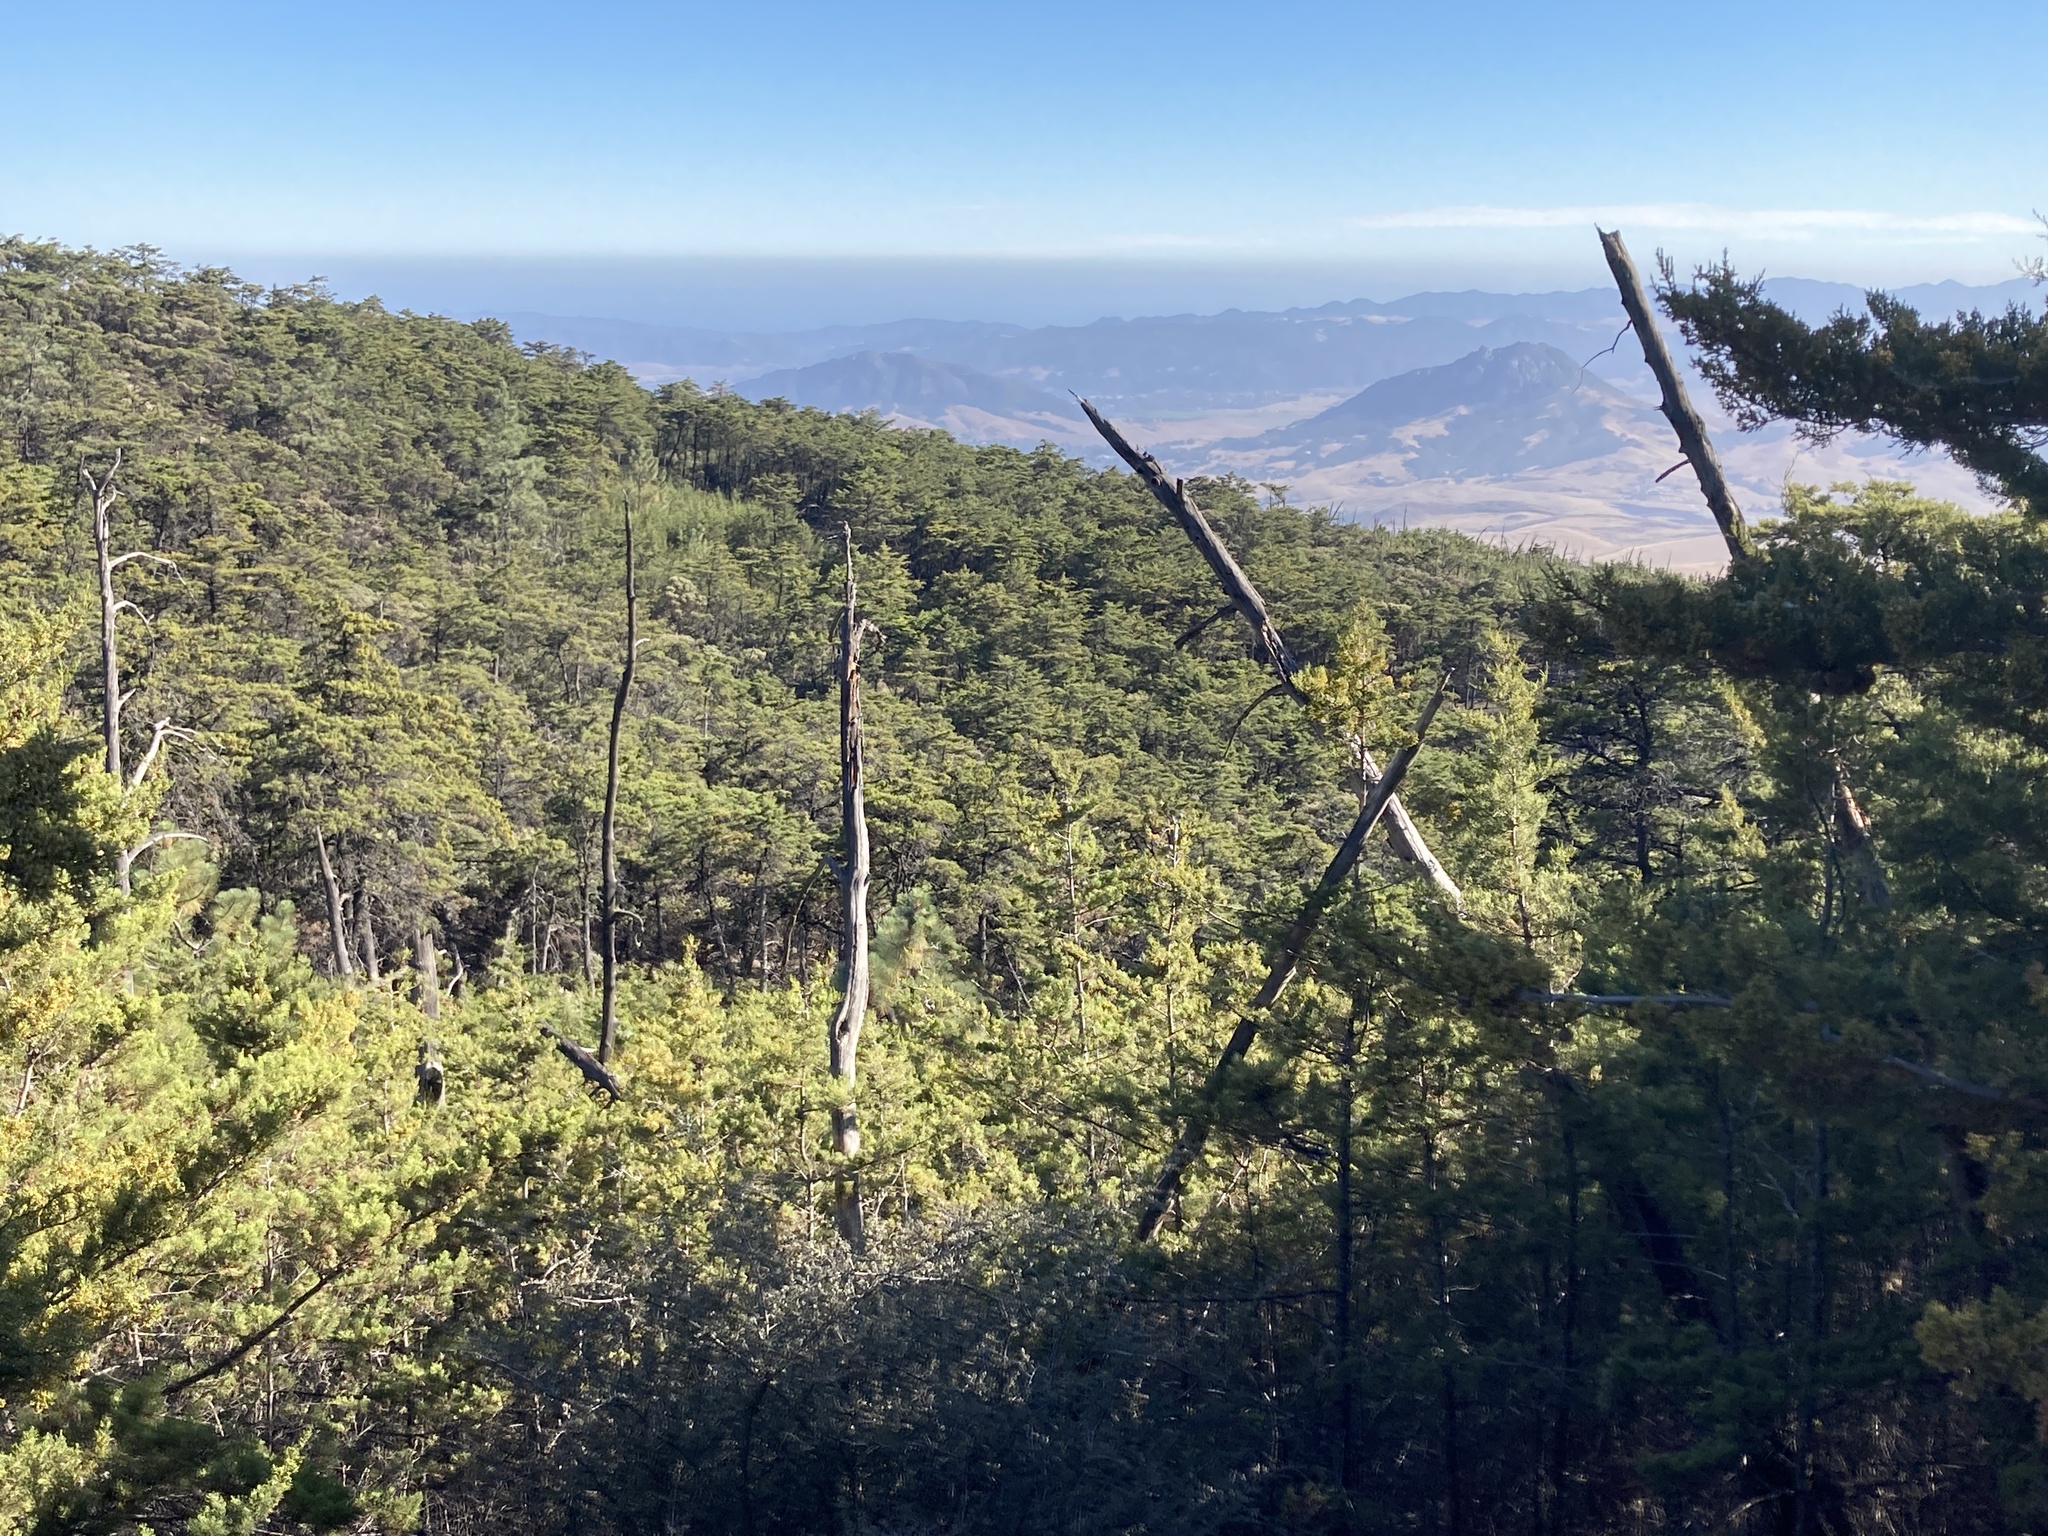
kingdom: Plantae
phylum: Tracheophyta
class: Pinopsida
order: Pinales
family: Cupressaceae
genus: Cupressus
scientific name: Cupressus sargentii
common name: Sargent cypress
